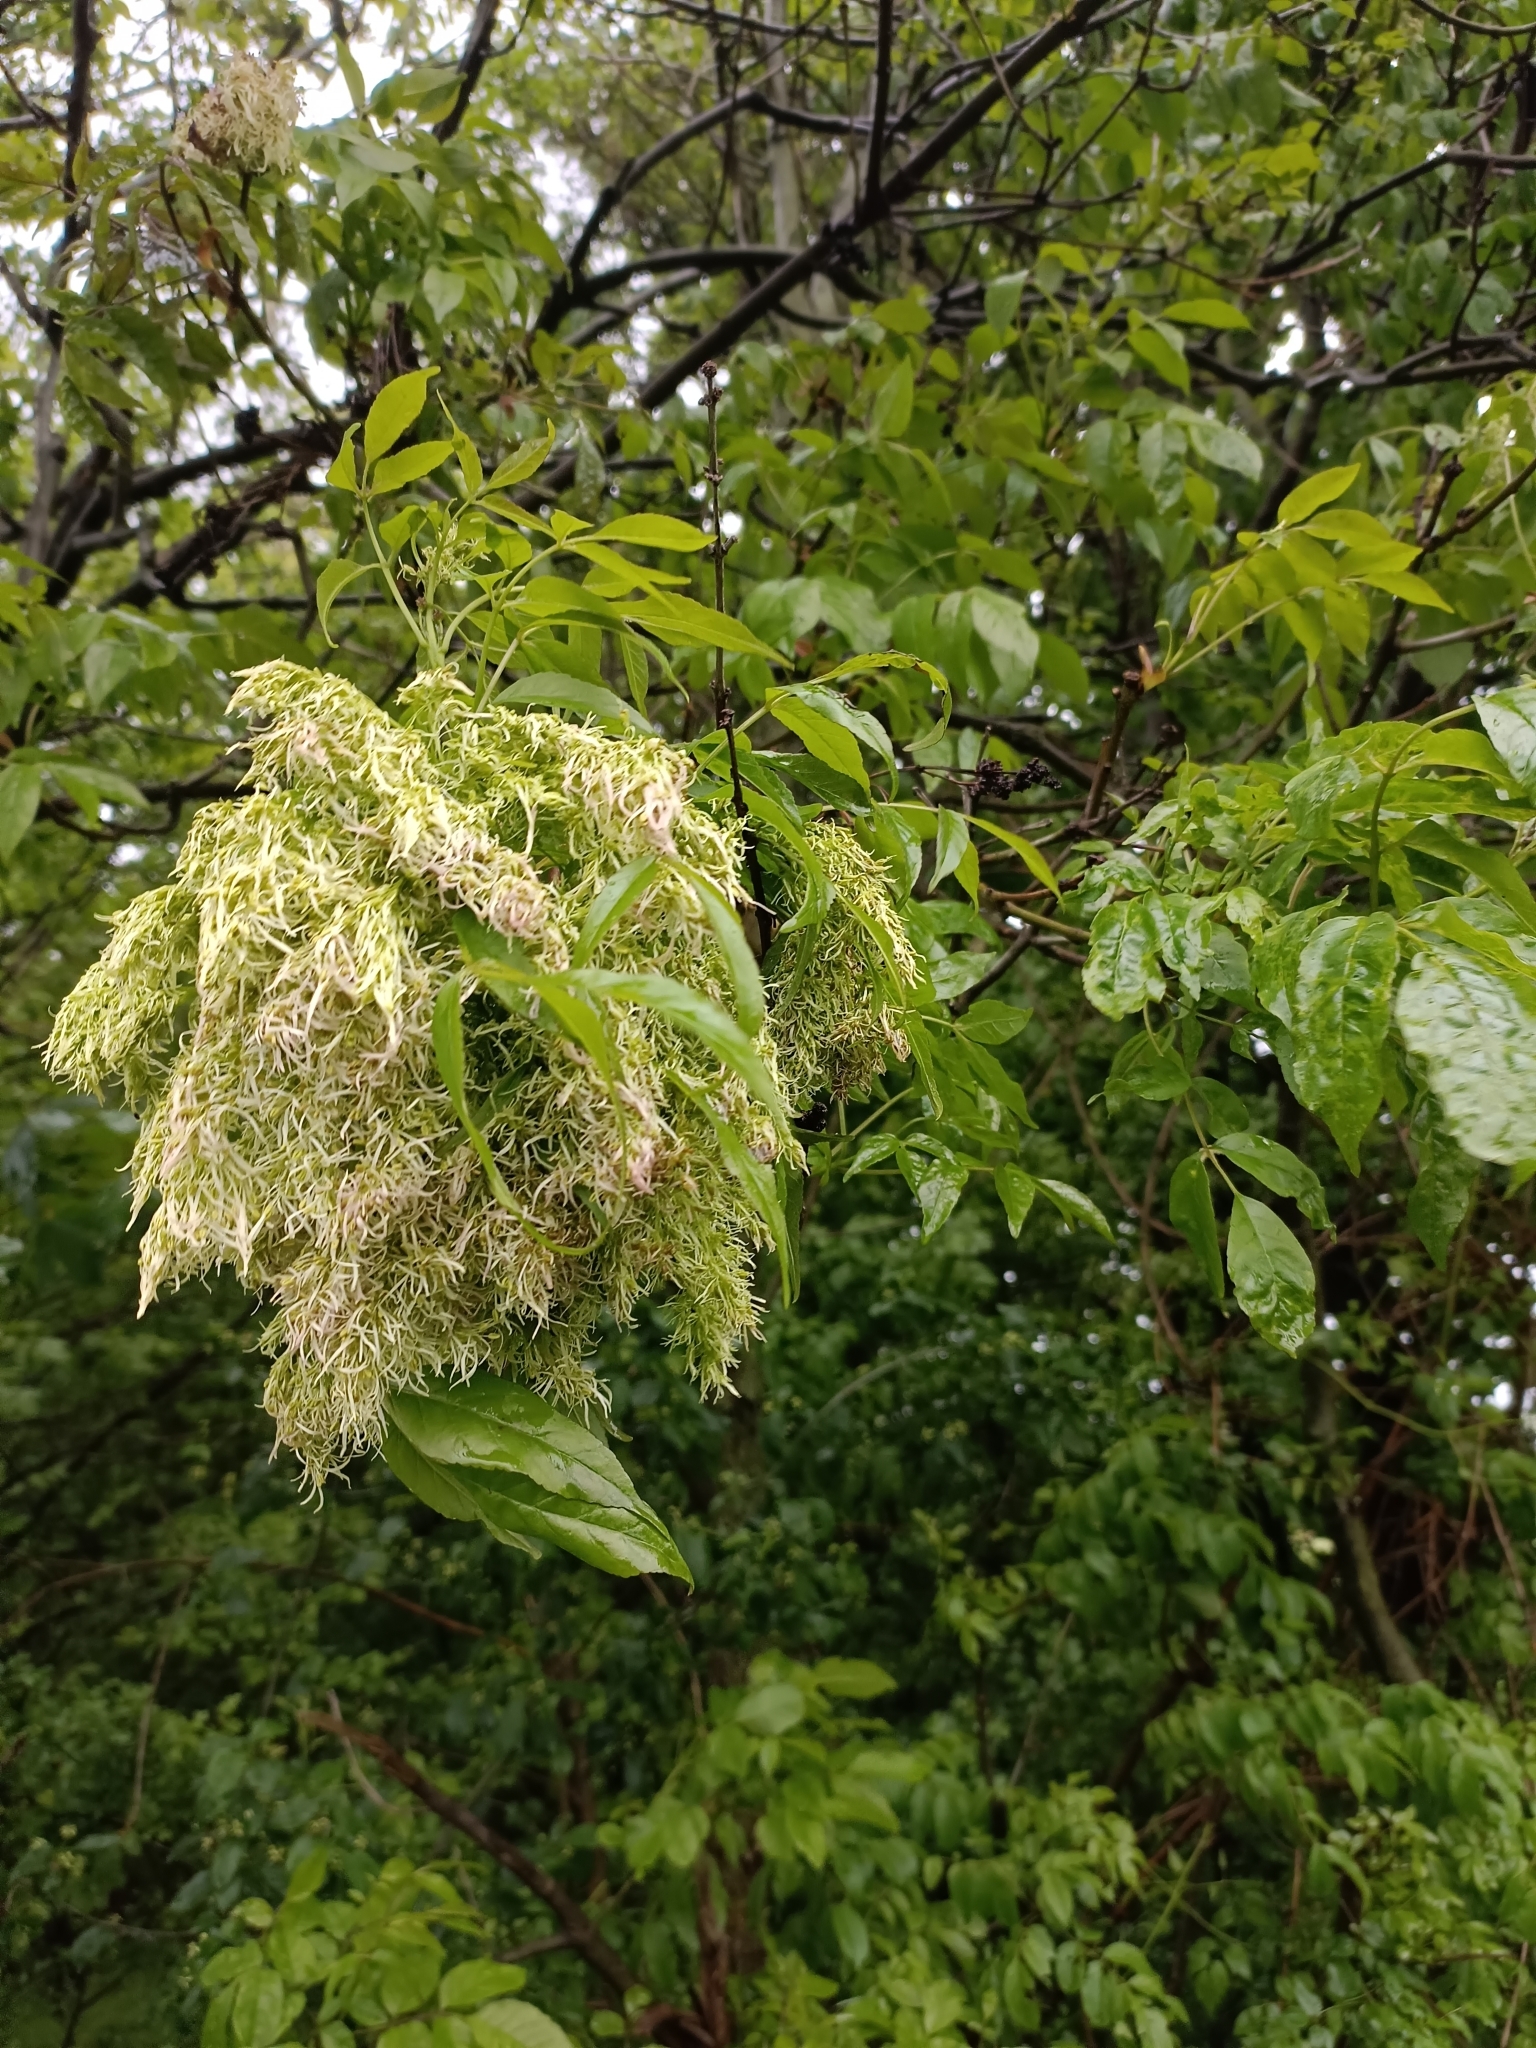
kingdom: Plantae
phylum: Tracheophyta
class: Magnoliopsida
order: Lamiales
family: Oleaceae
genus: Fraxinus
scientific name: Fraxinus ornus
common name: Manna ash
